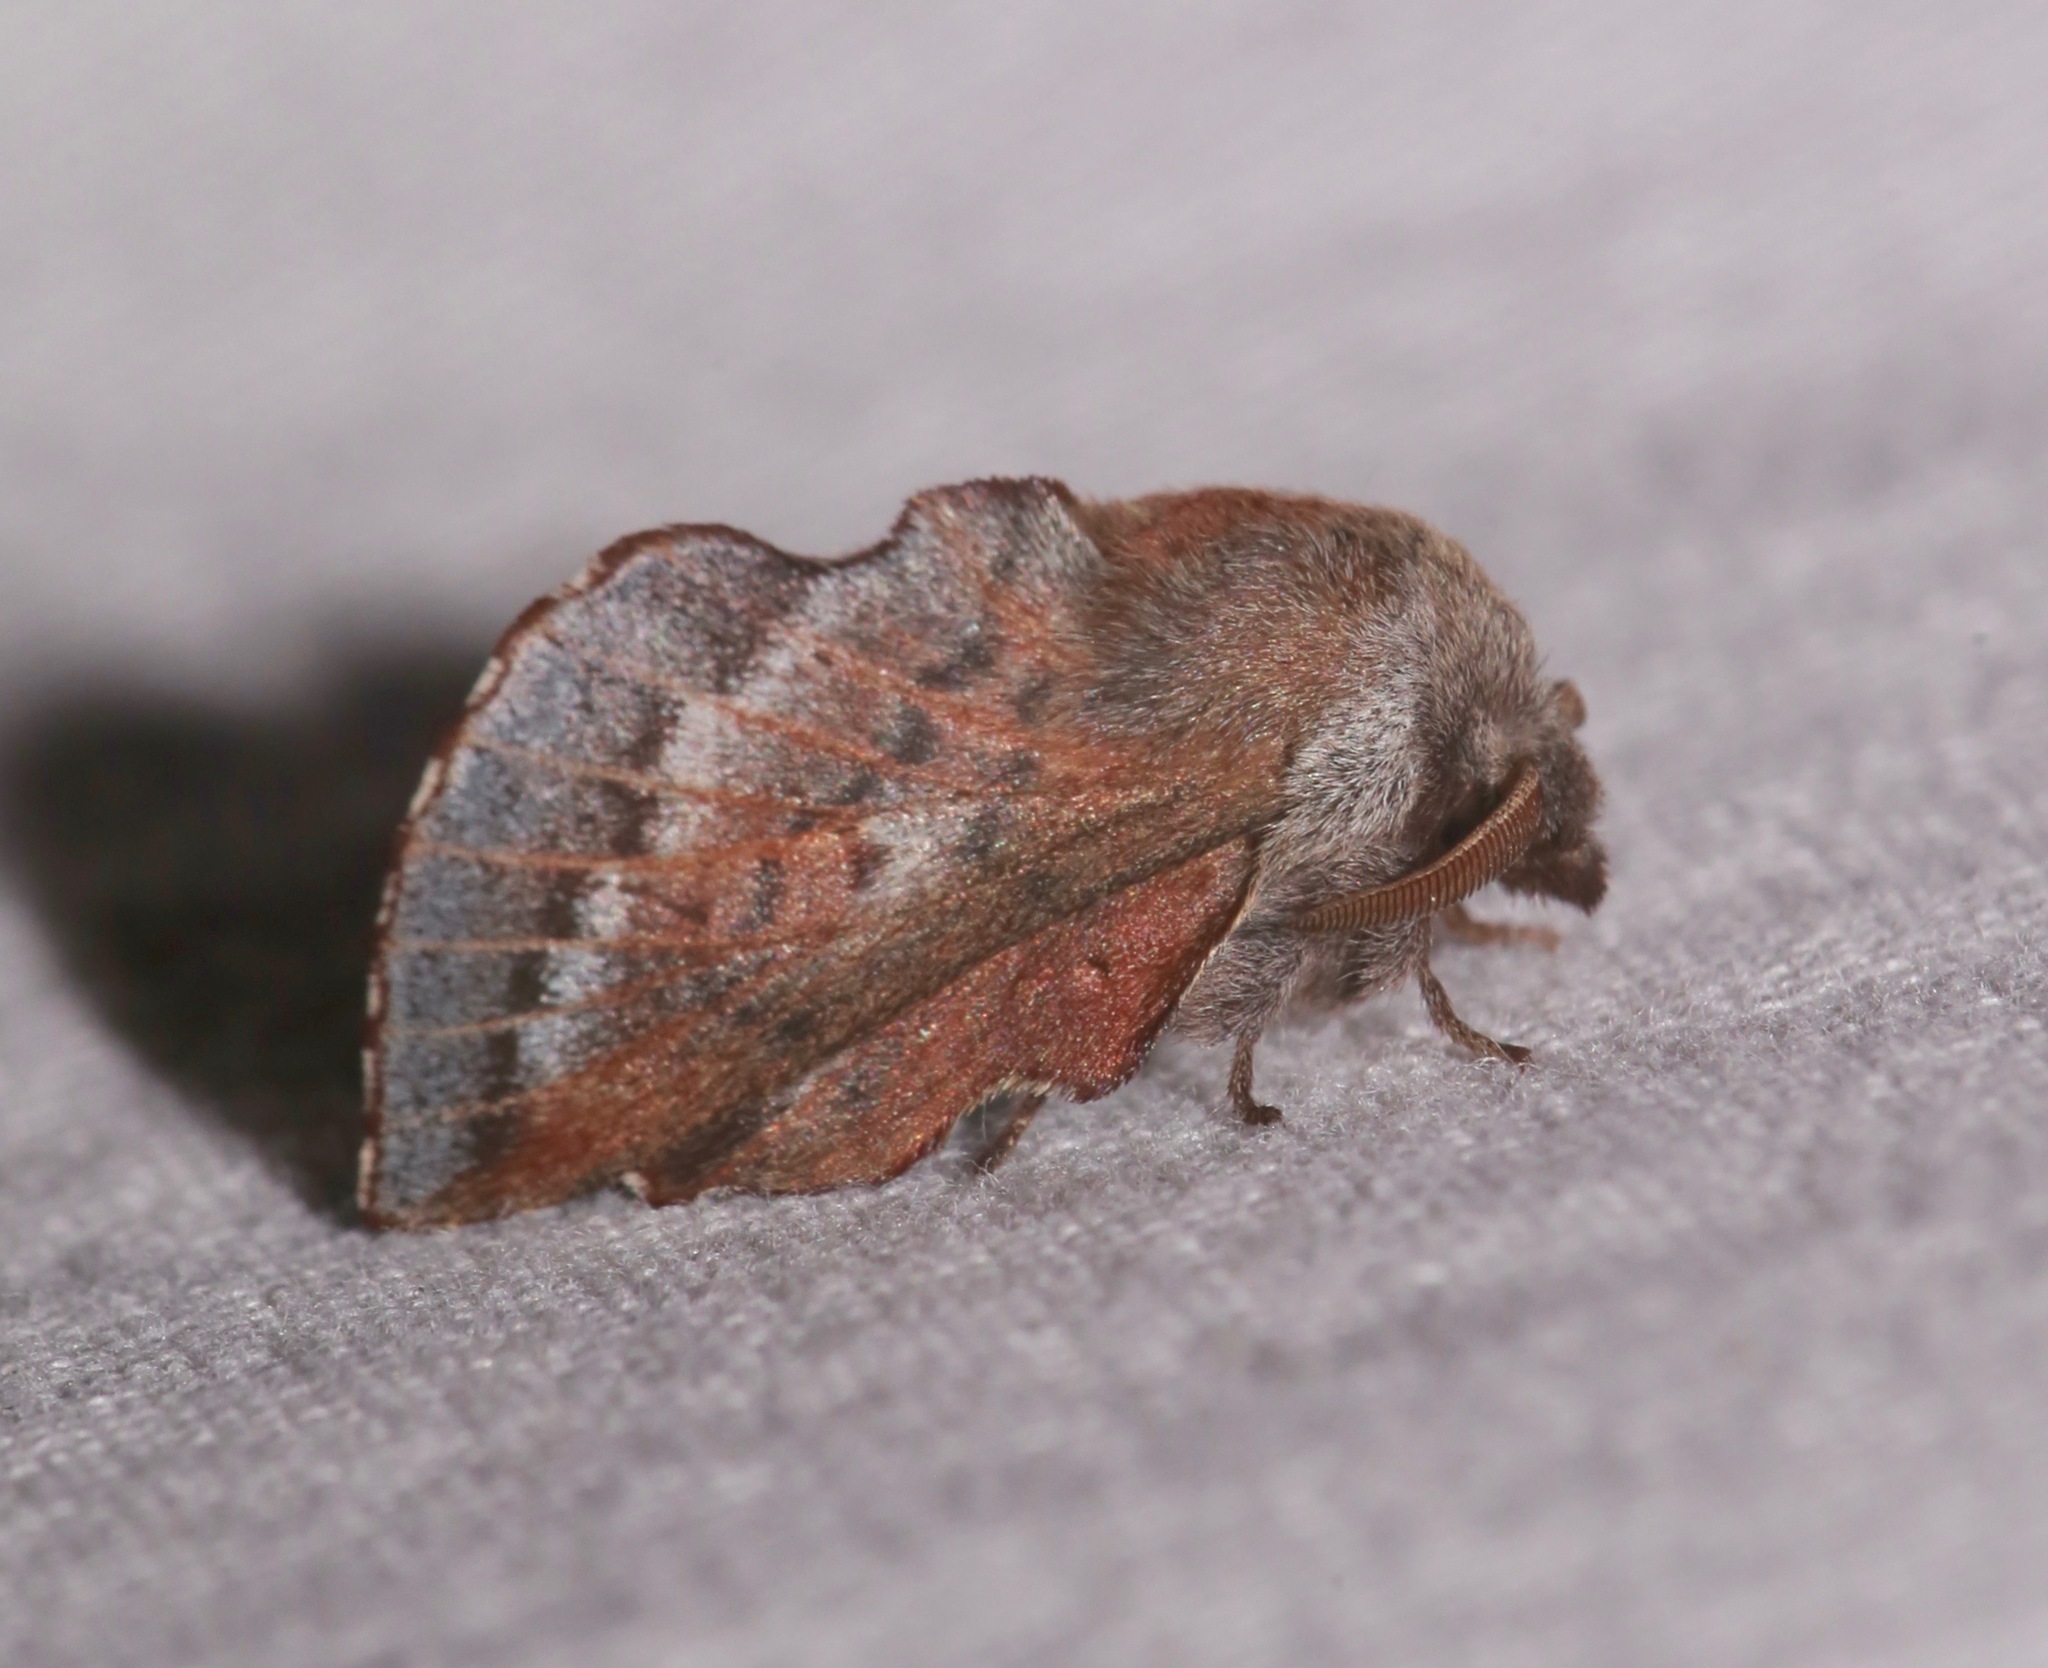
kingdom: Animalia
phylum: Arthropoda
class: Insecta
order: Lepidoptera
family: Lasiocampidae
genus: Phyllodesma
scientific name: Phyllodesma americana
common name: American lappet moth
